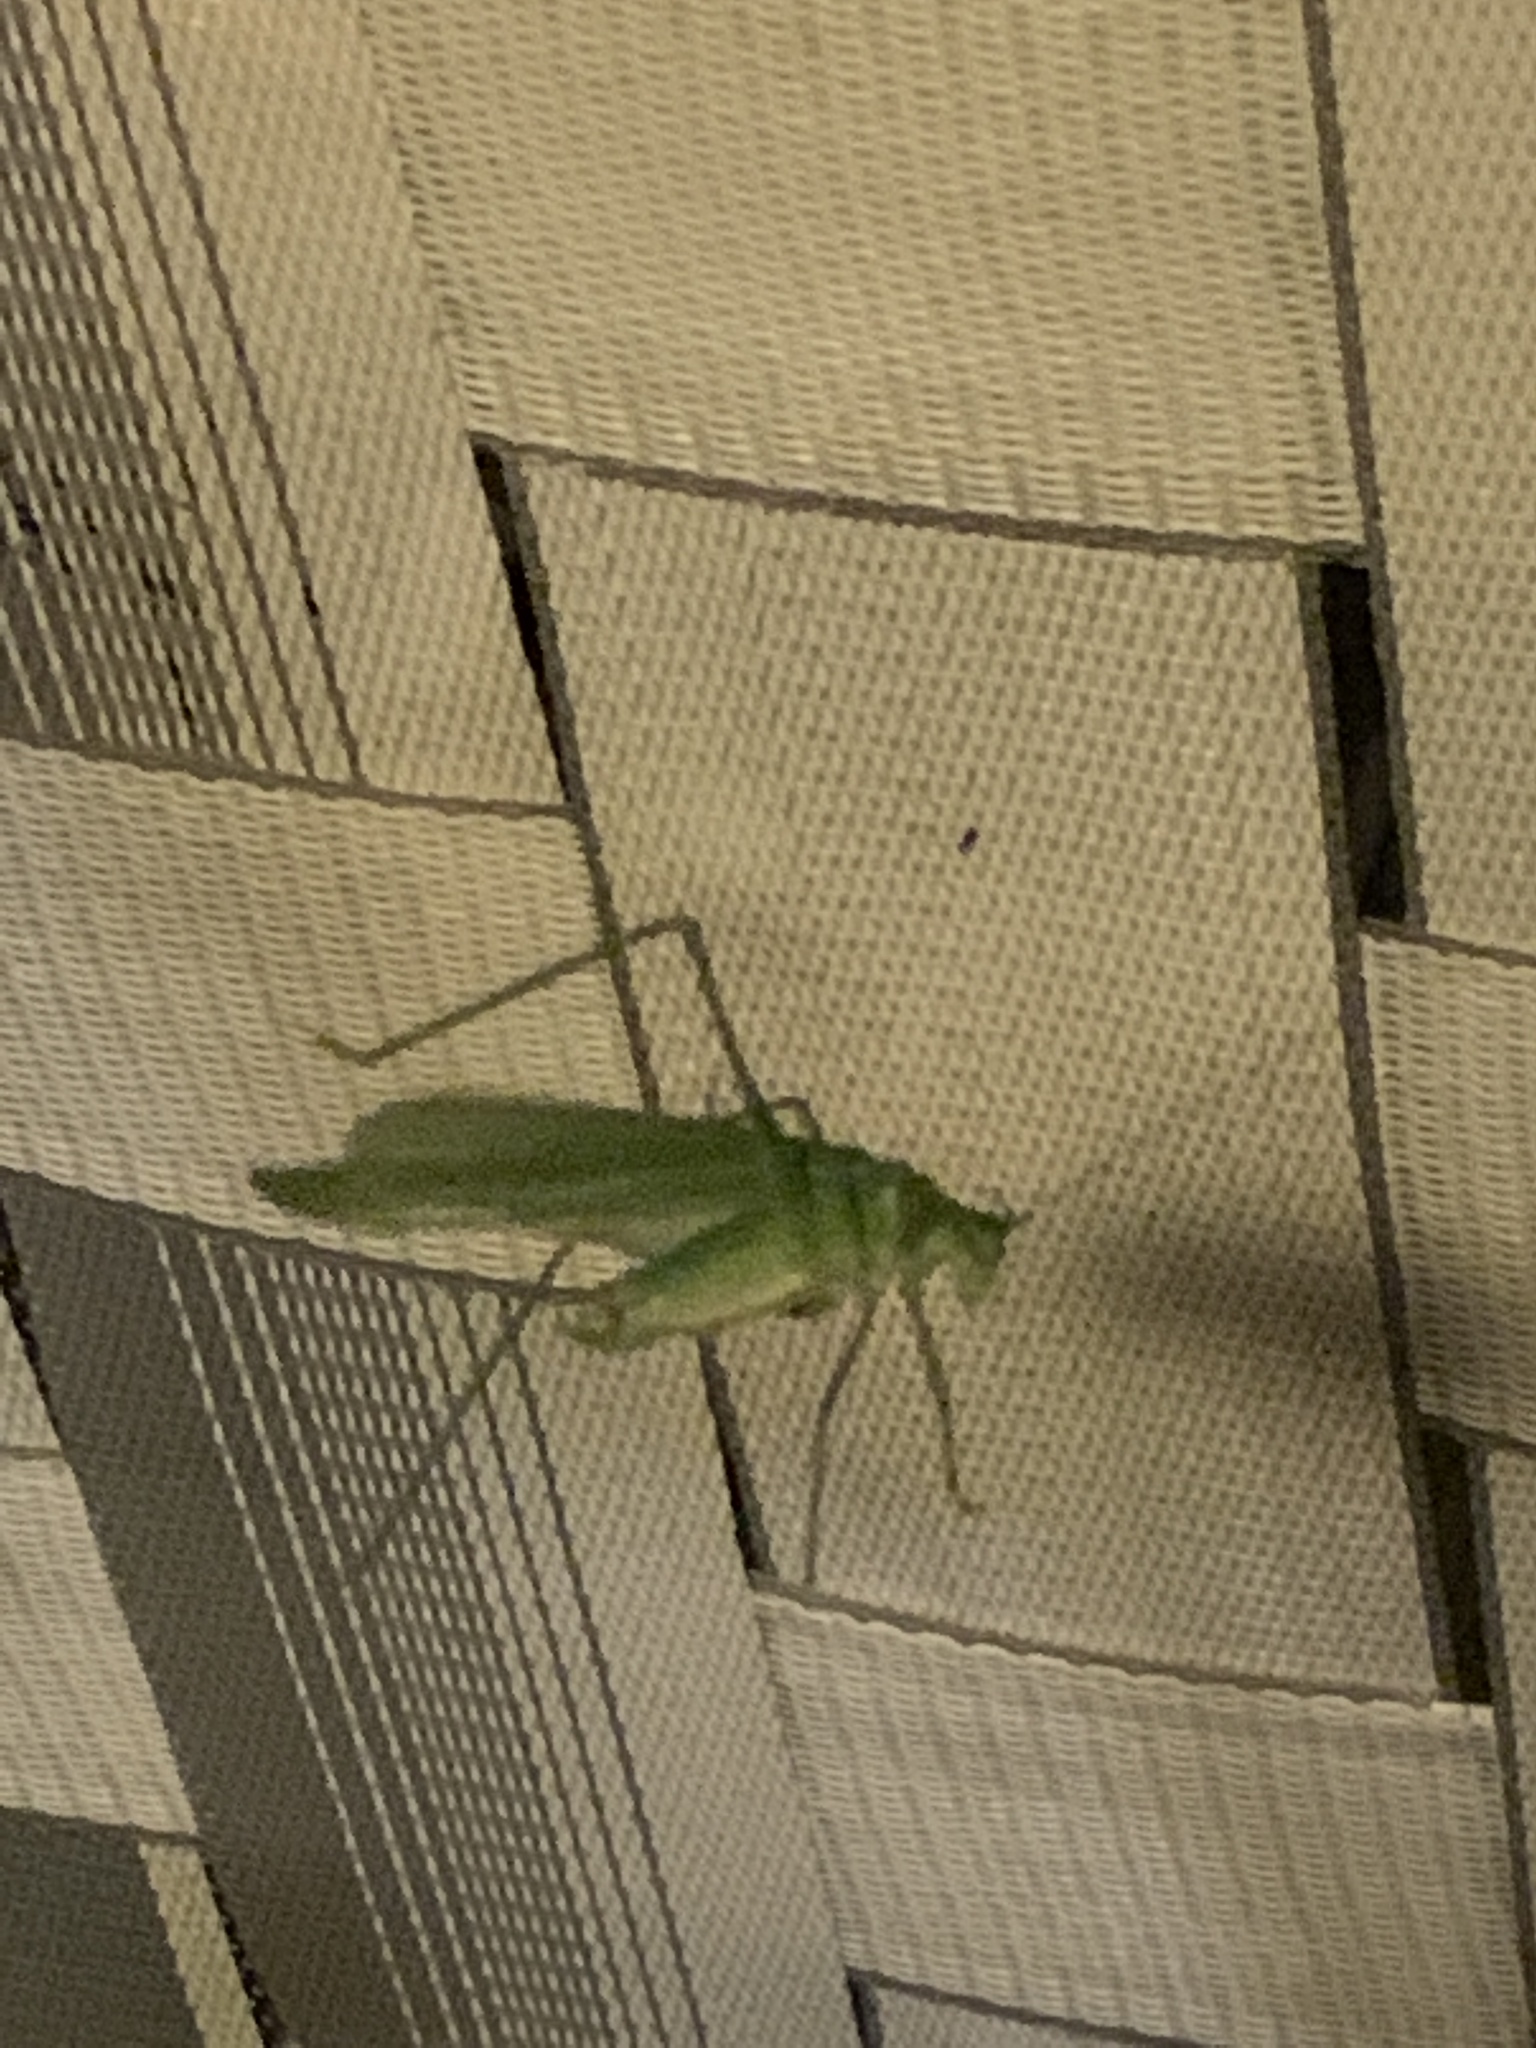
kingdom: Animalia
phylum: Arthropoda
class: Insecta
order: Orthoptera
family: Tettigoniidae
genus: Scudderia
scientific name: Scudderia septentrionalis
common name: Northern bush-katydid
